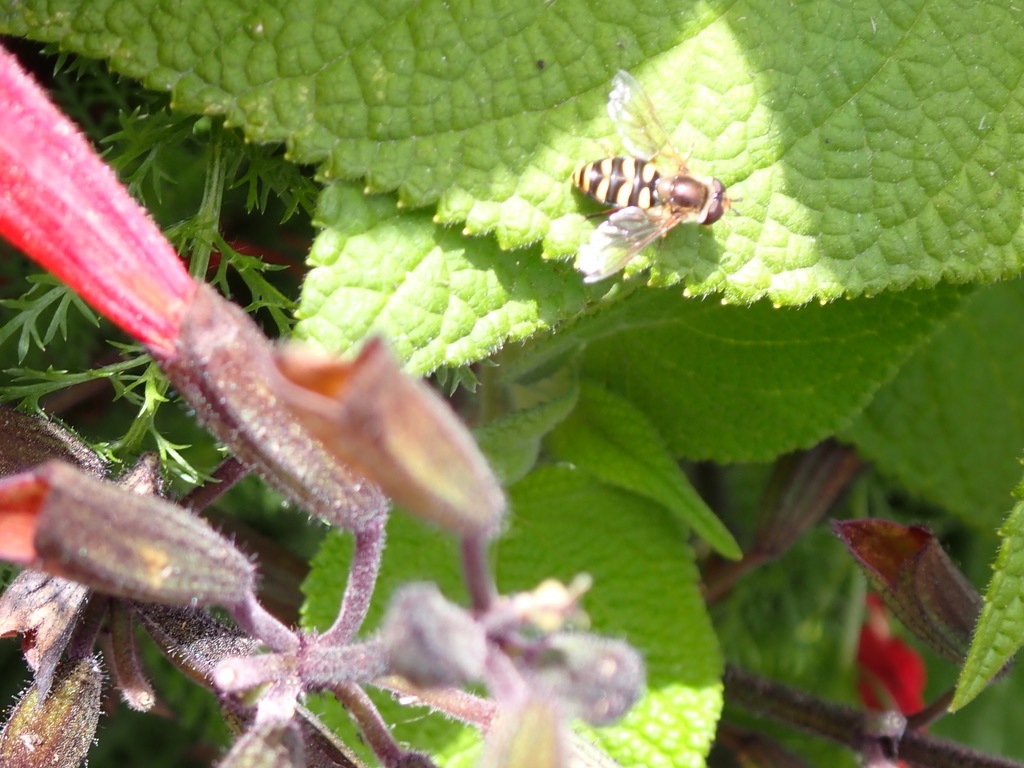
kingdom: Animalia
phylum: Arthropoda
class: Insecta
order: Diptera
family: Syrphidae
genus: Eupeodes
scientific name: Eupeodes fumipennis
